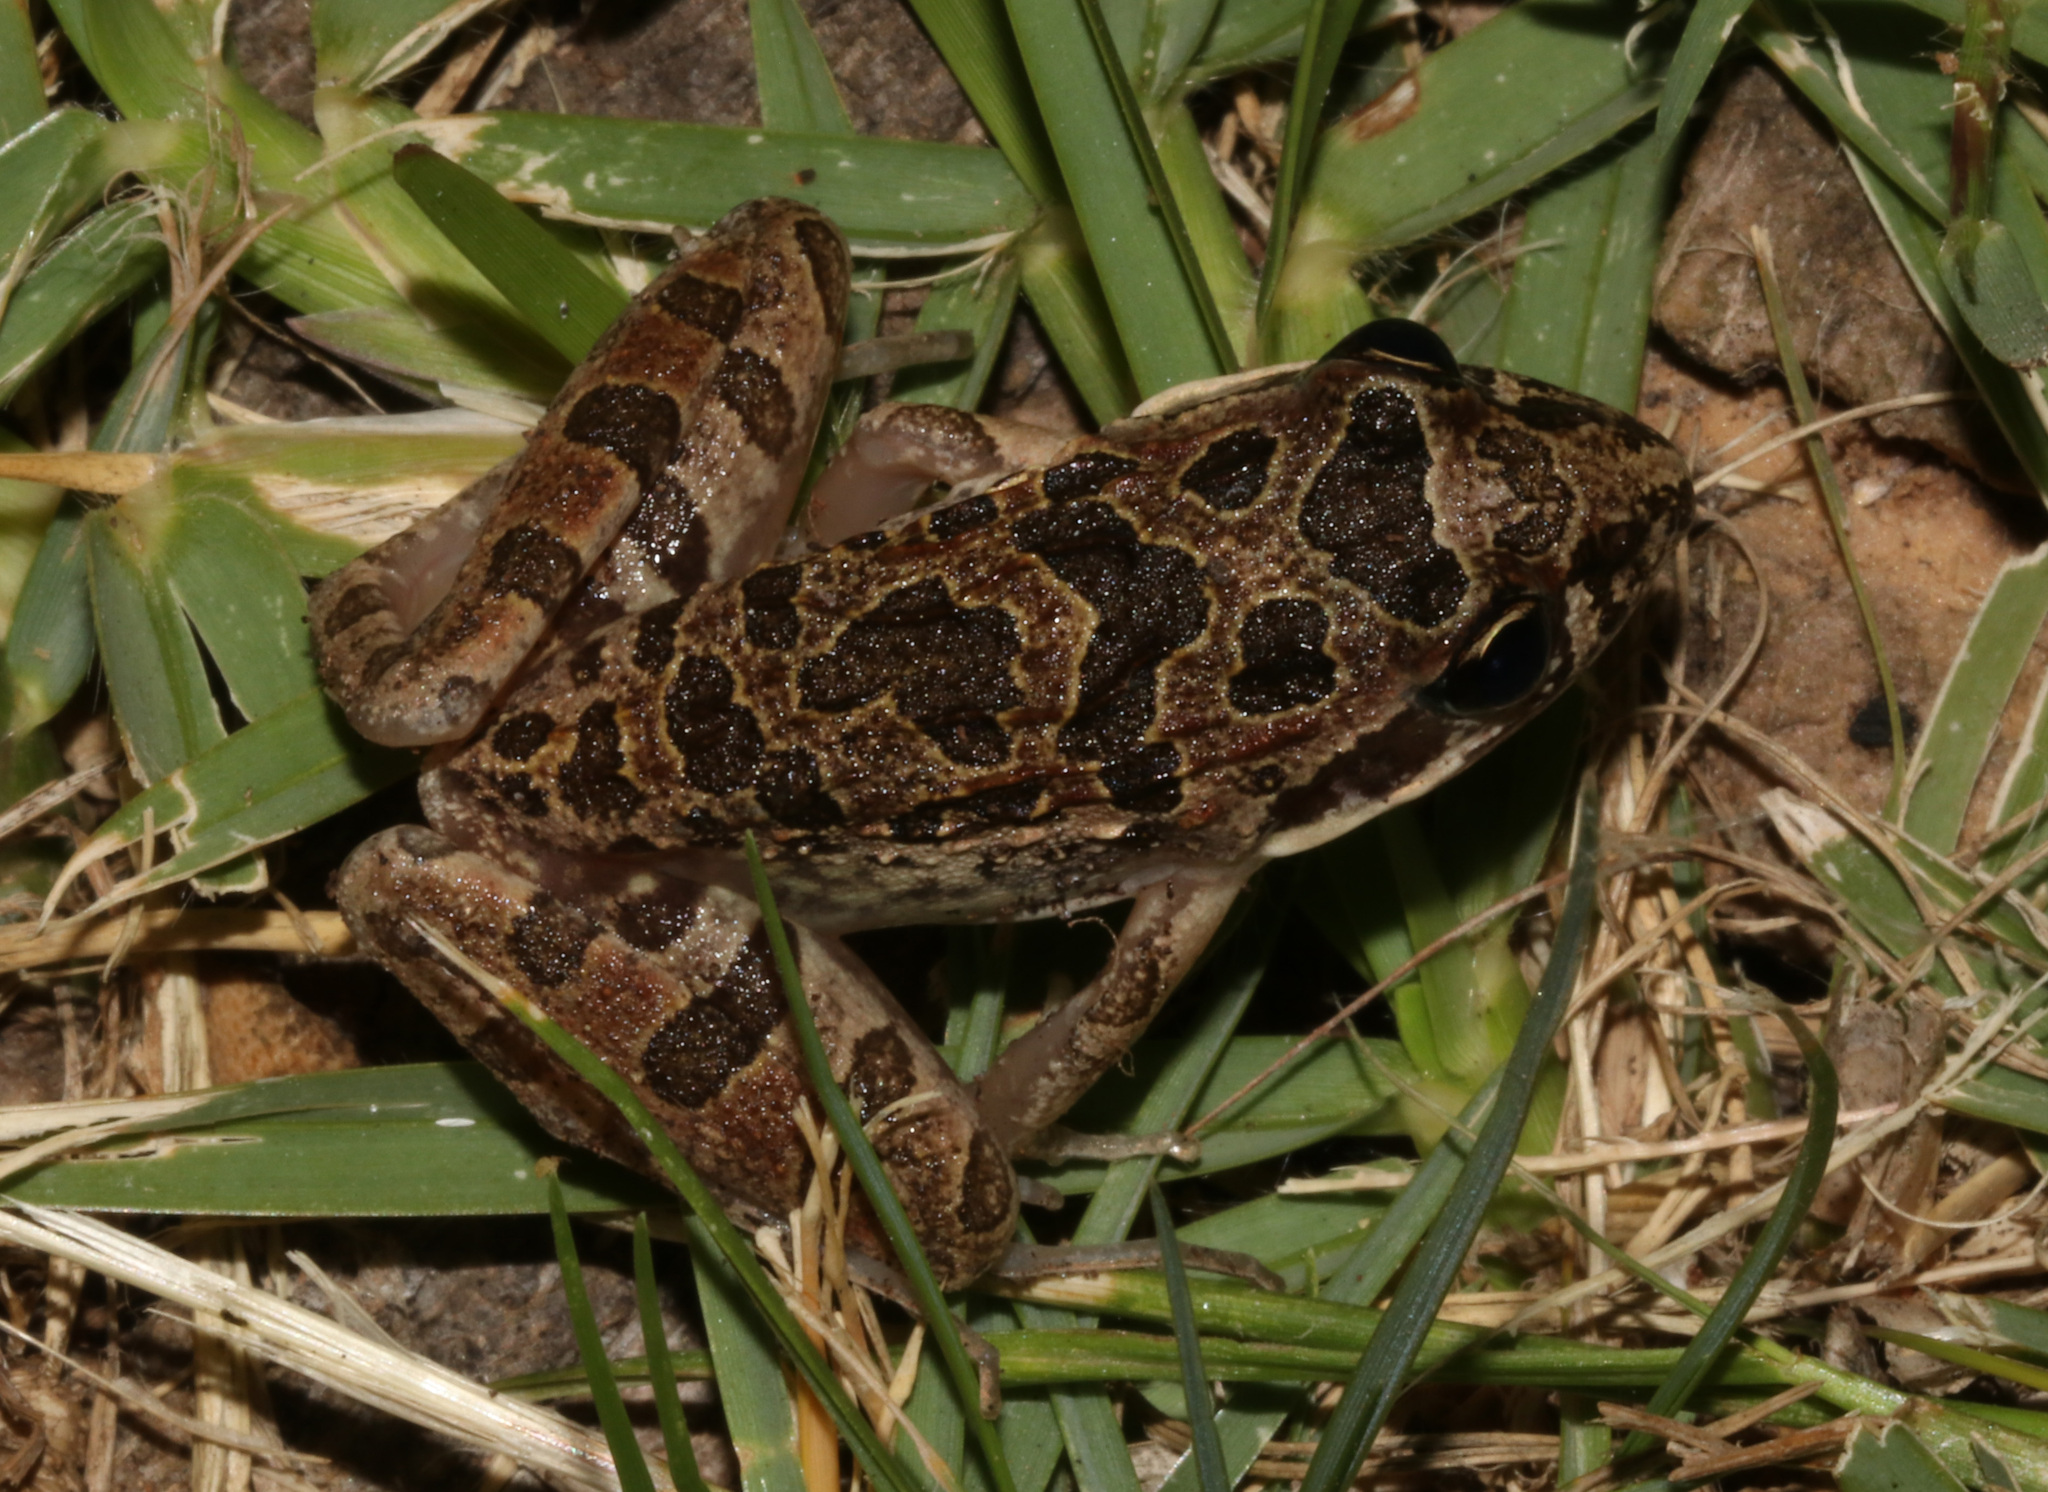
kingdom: Animalia
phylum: Chordata
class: Amphibia
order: Anura
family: Pyxicephalidae
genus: Strongylopus
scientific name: Strongylopus grayii
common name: Gray's stream frog
